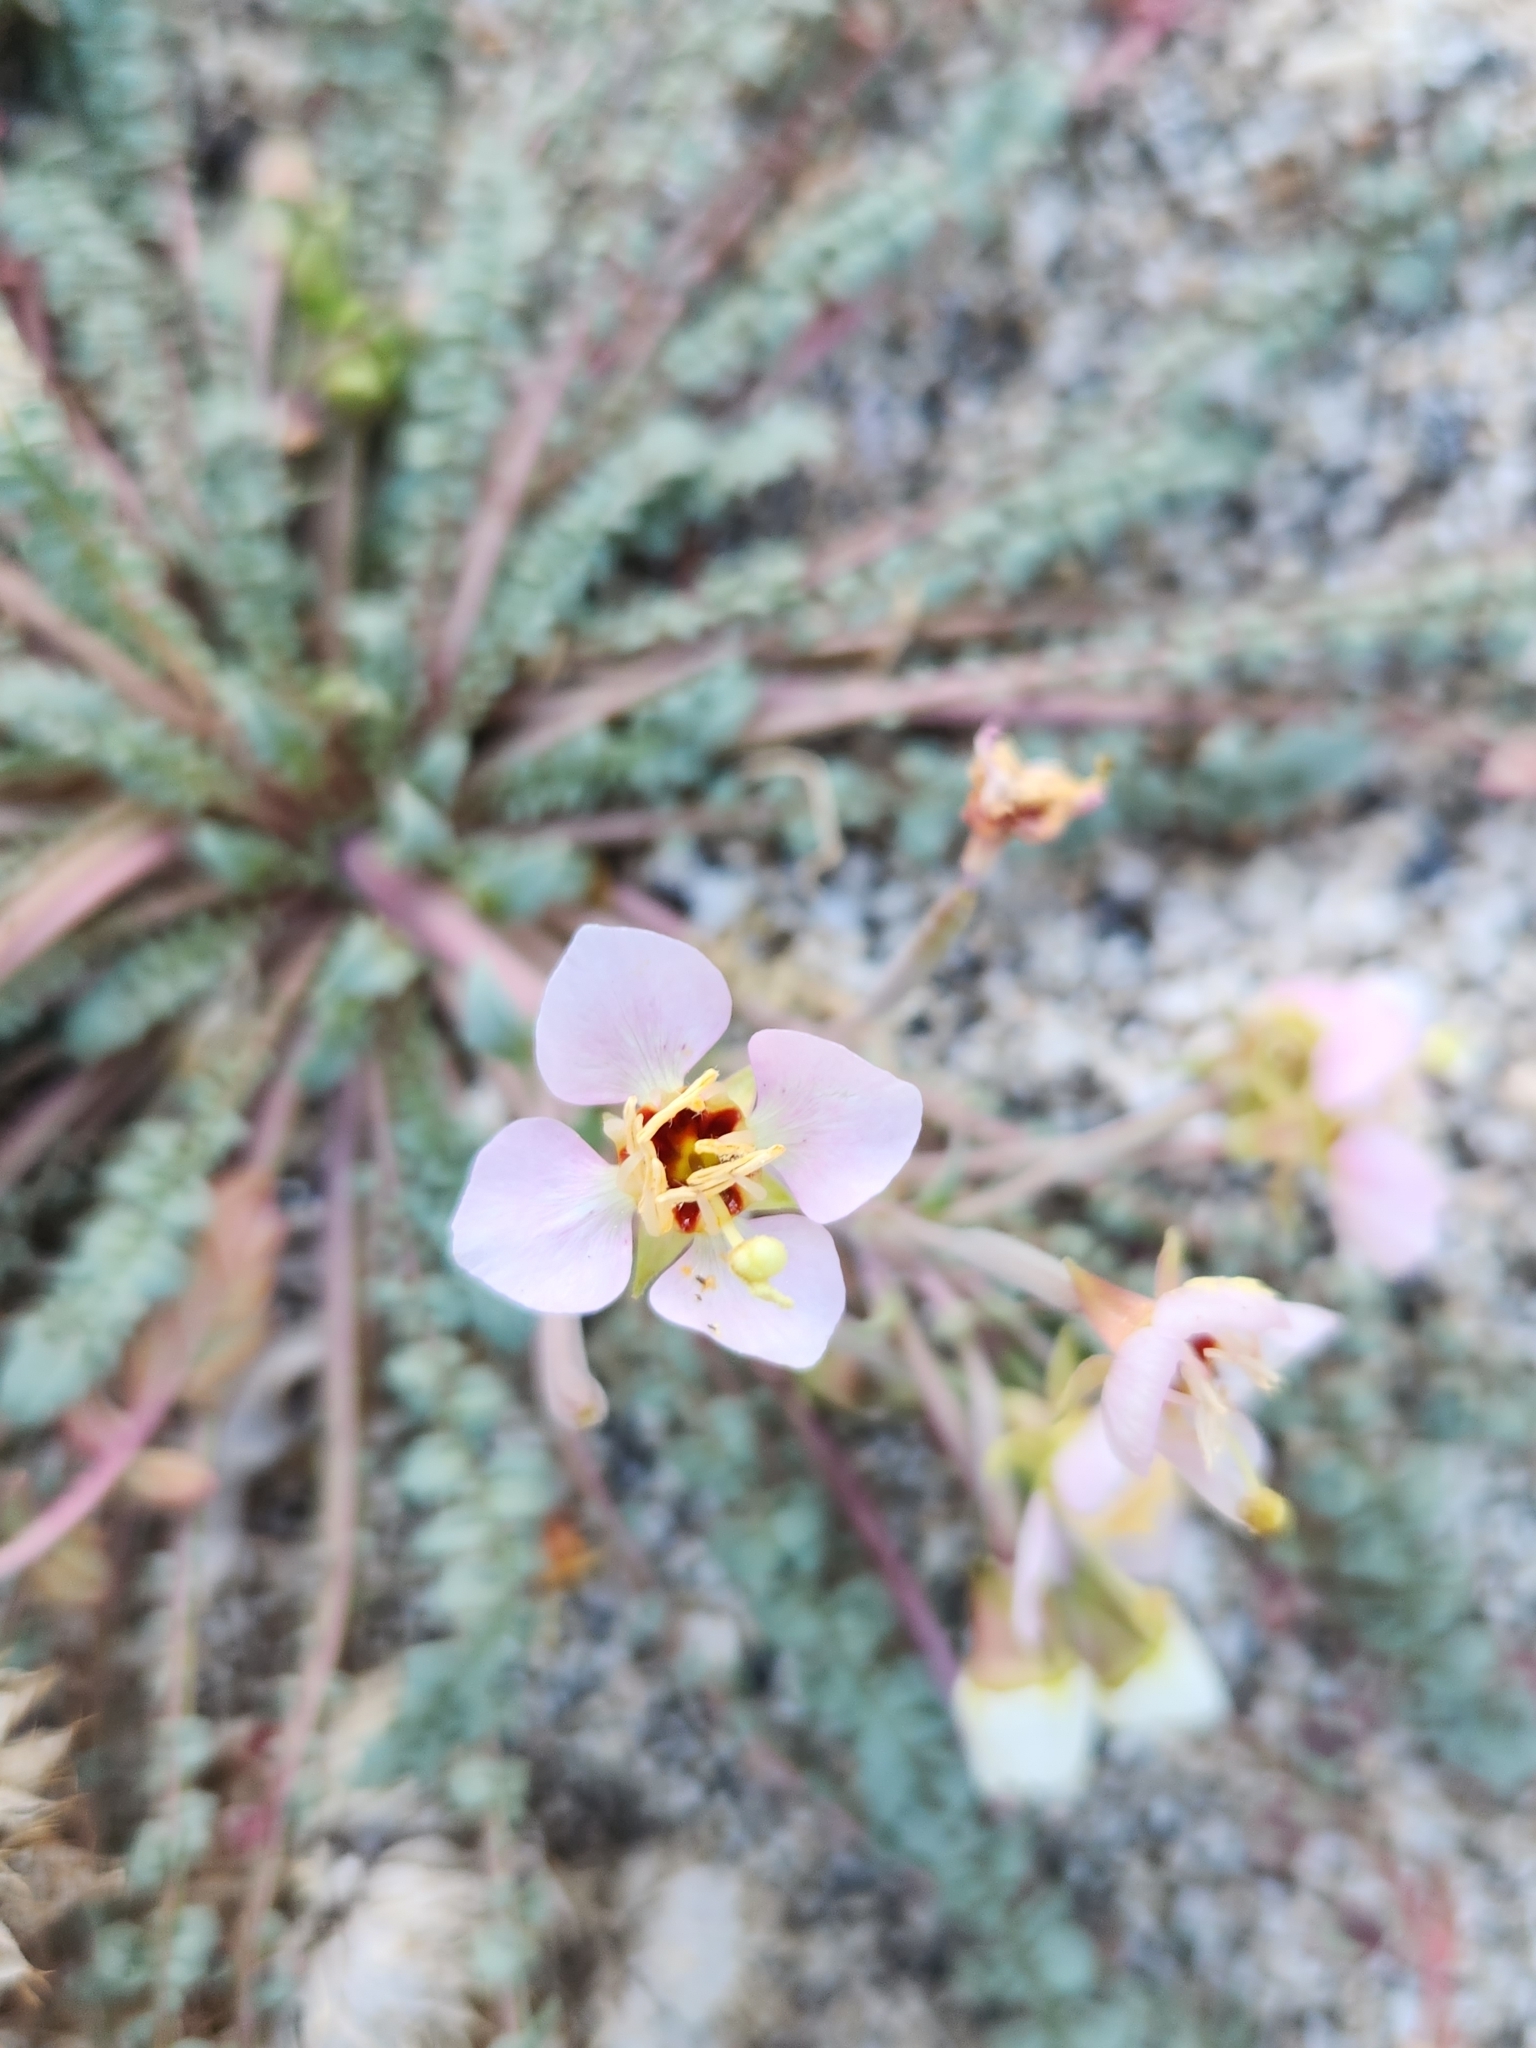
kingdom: Plantae
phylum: Tracheophyta
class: Magnoliopsida
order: Myrtales
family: Onagraceae
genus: Chylismia
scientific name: Chylismia claviformis
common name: Browneyes
